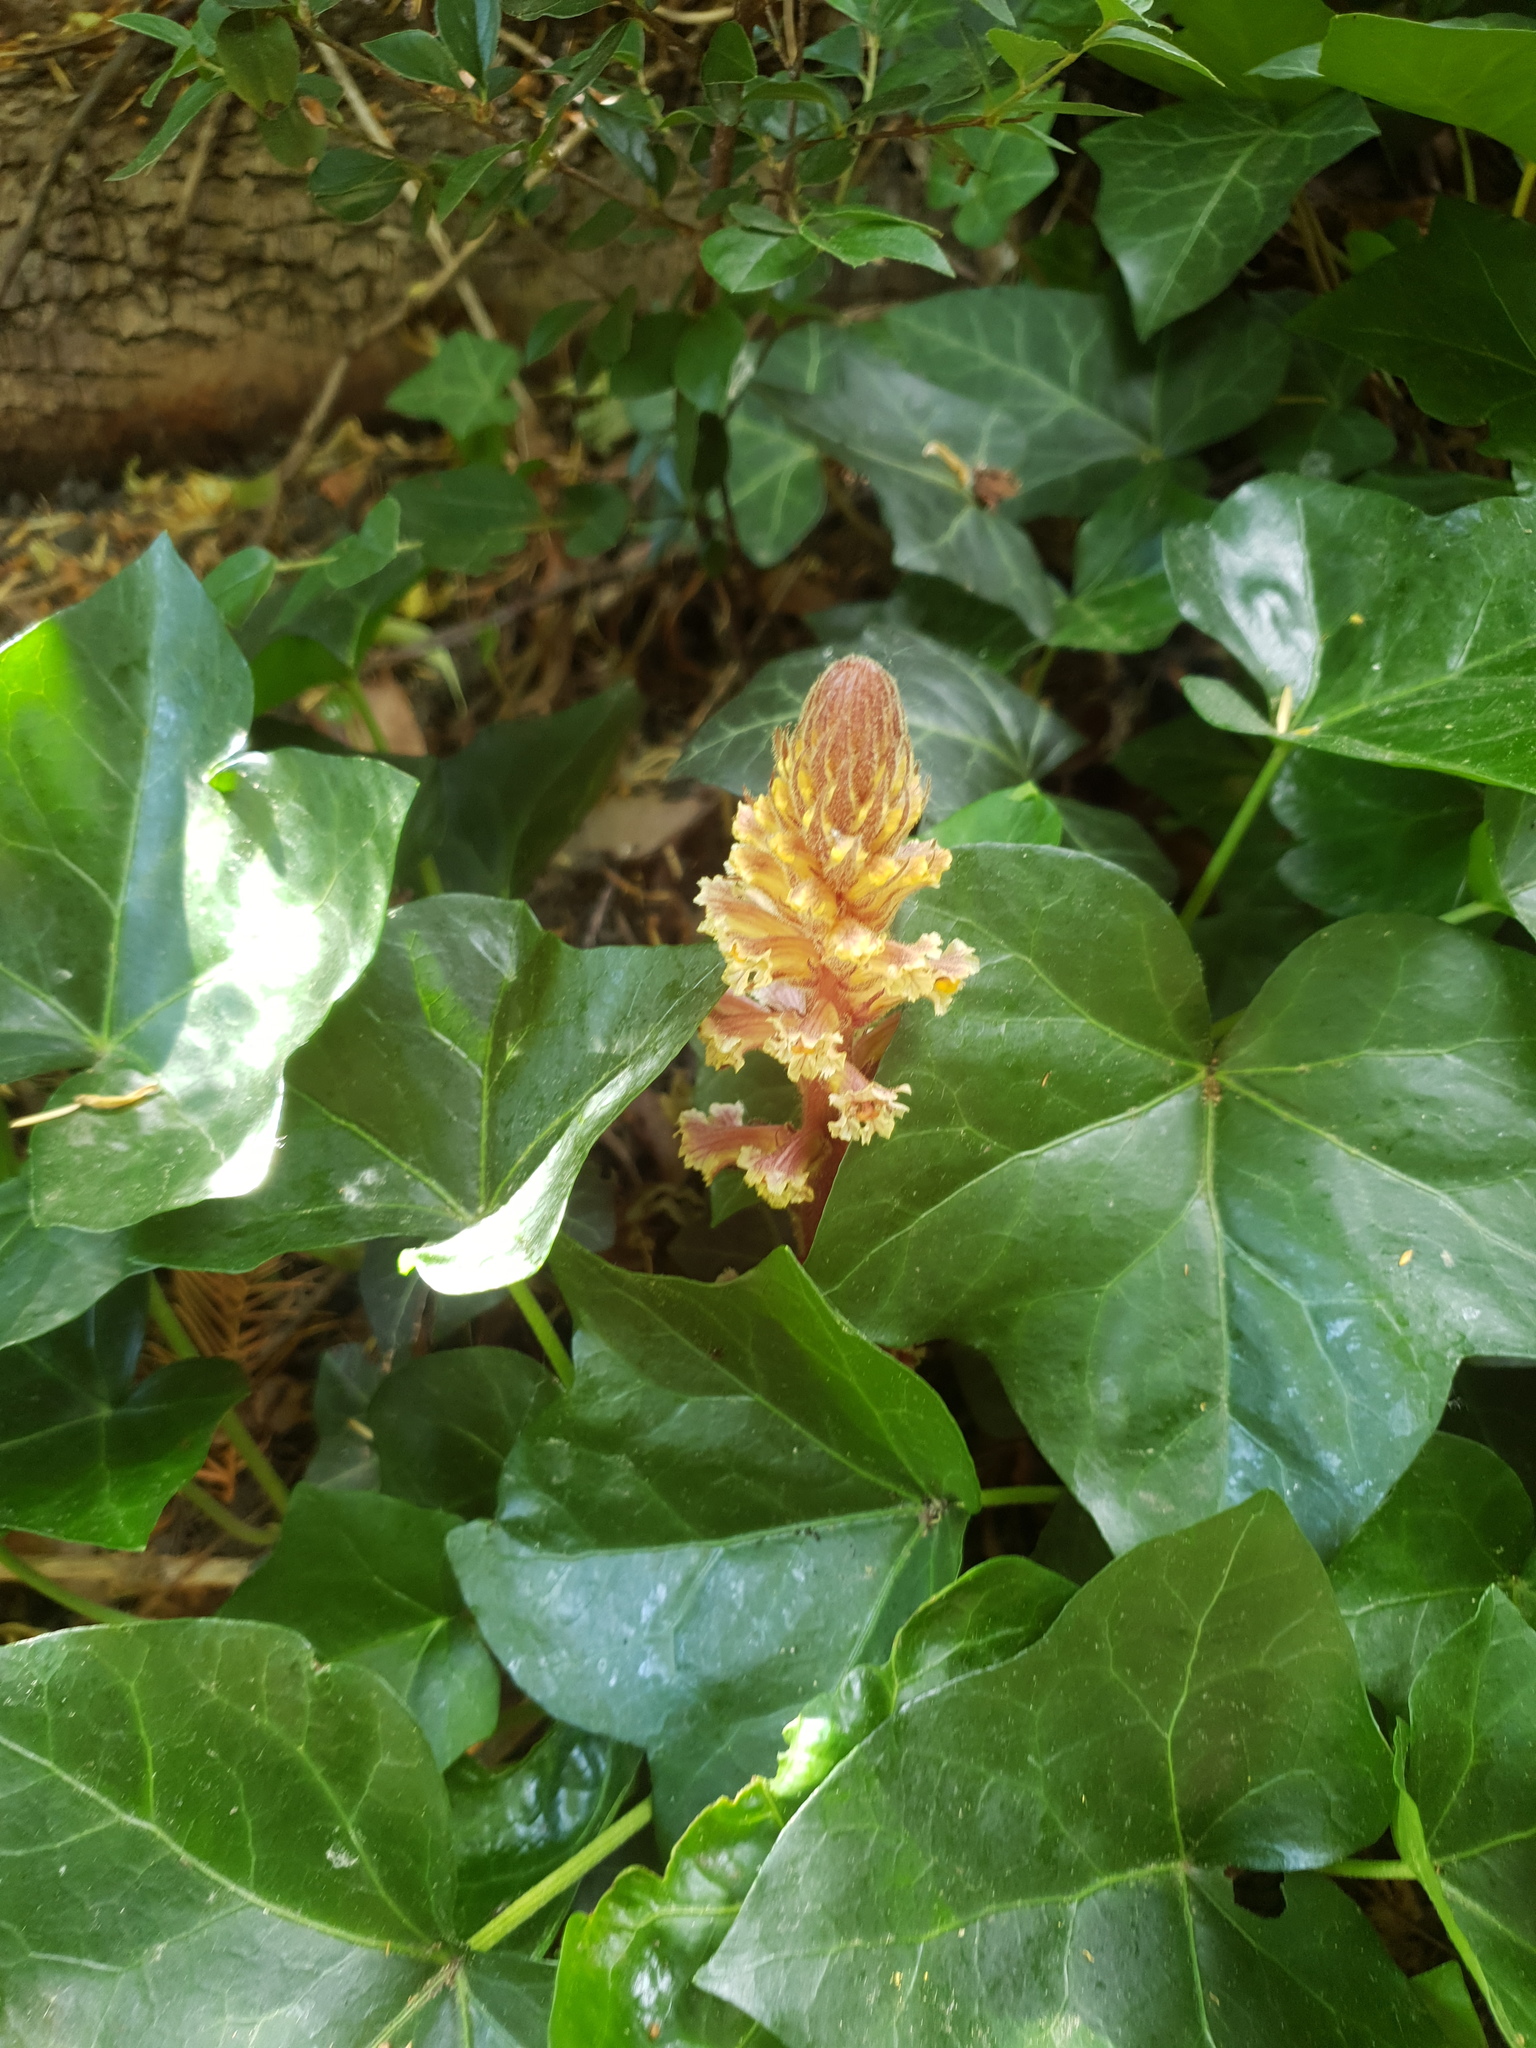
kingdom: Plantae
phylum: Tracheophyta
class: Magnoliopsida
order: Lamiales
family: Orobanchaceae
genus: Orobanche
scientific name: Orobanche hederae
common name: Ivy broomrape
